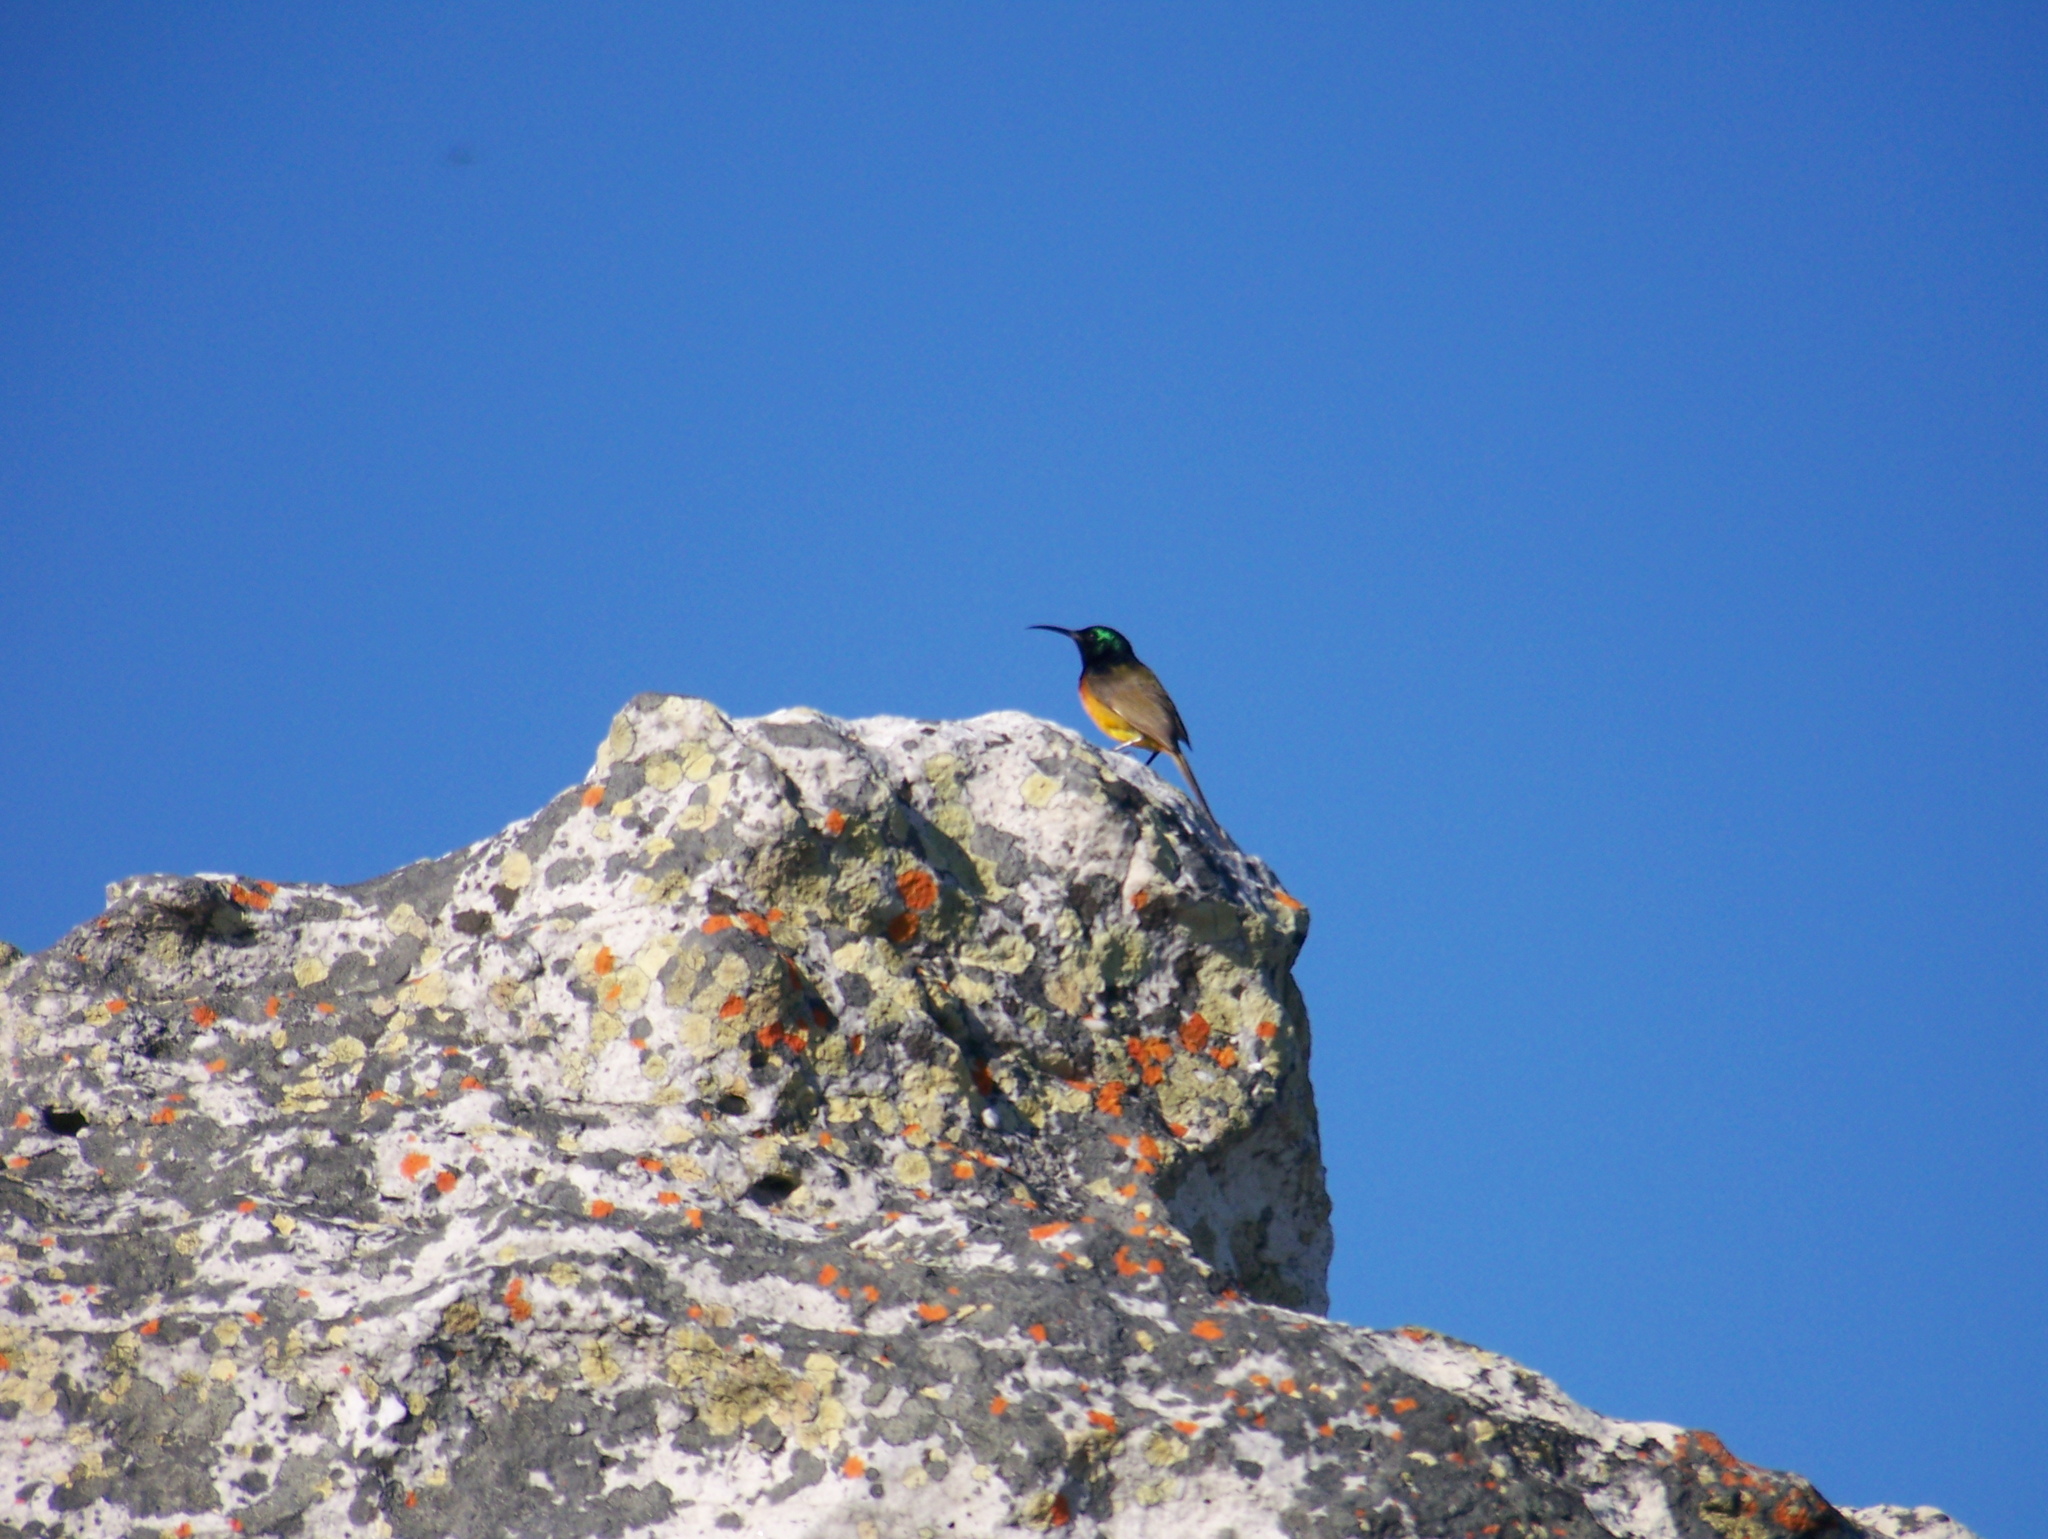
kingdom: Animalia
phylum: Chordata
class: Aves
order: Passeriformes
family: Nectariniidae
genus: Anthobaphes
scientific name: Anthobaphes violacea
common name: Orange-breasted sunbird
